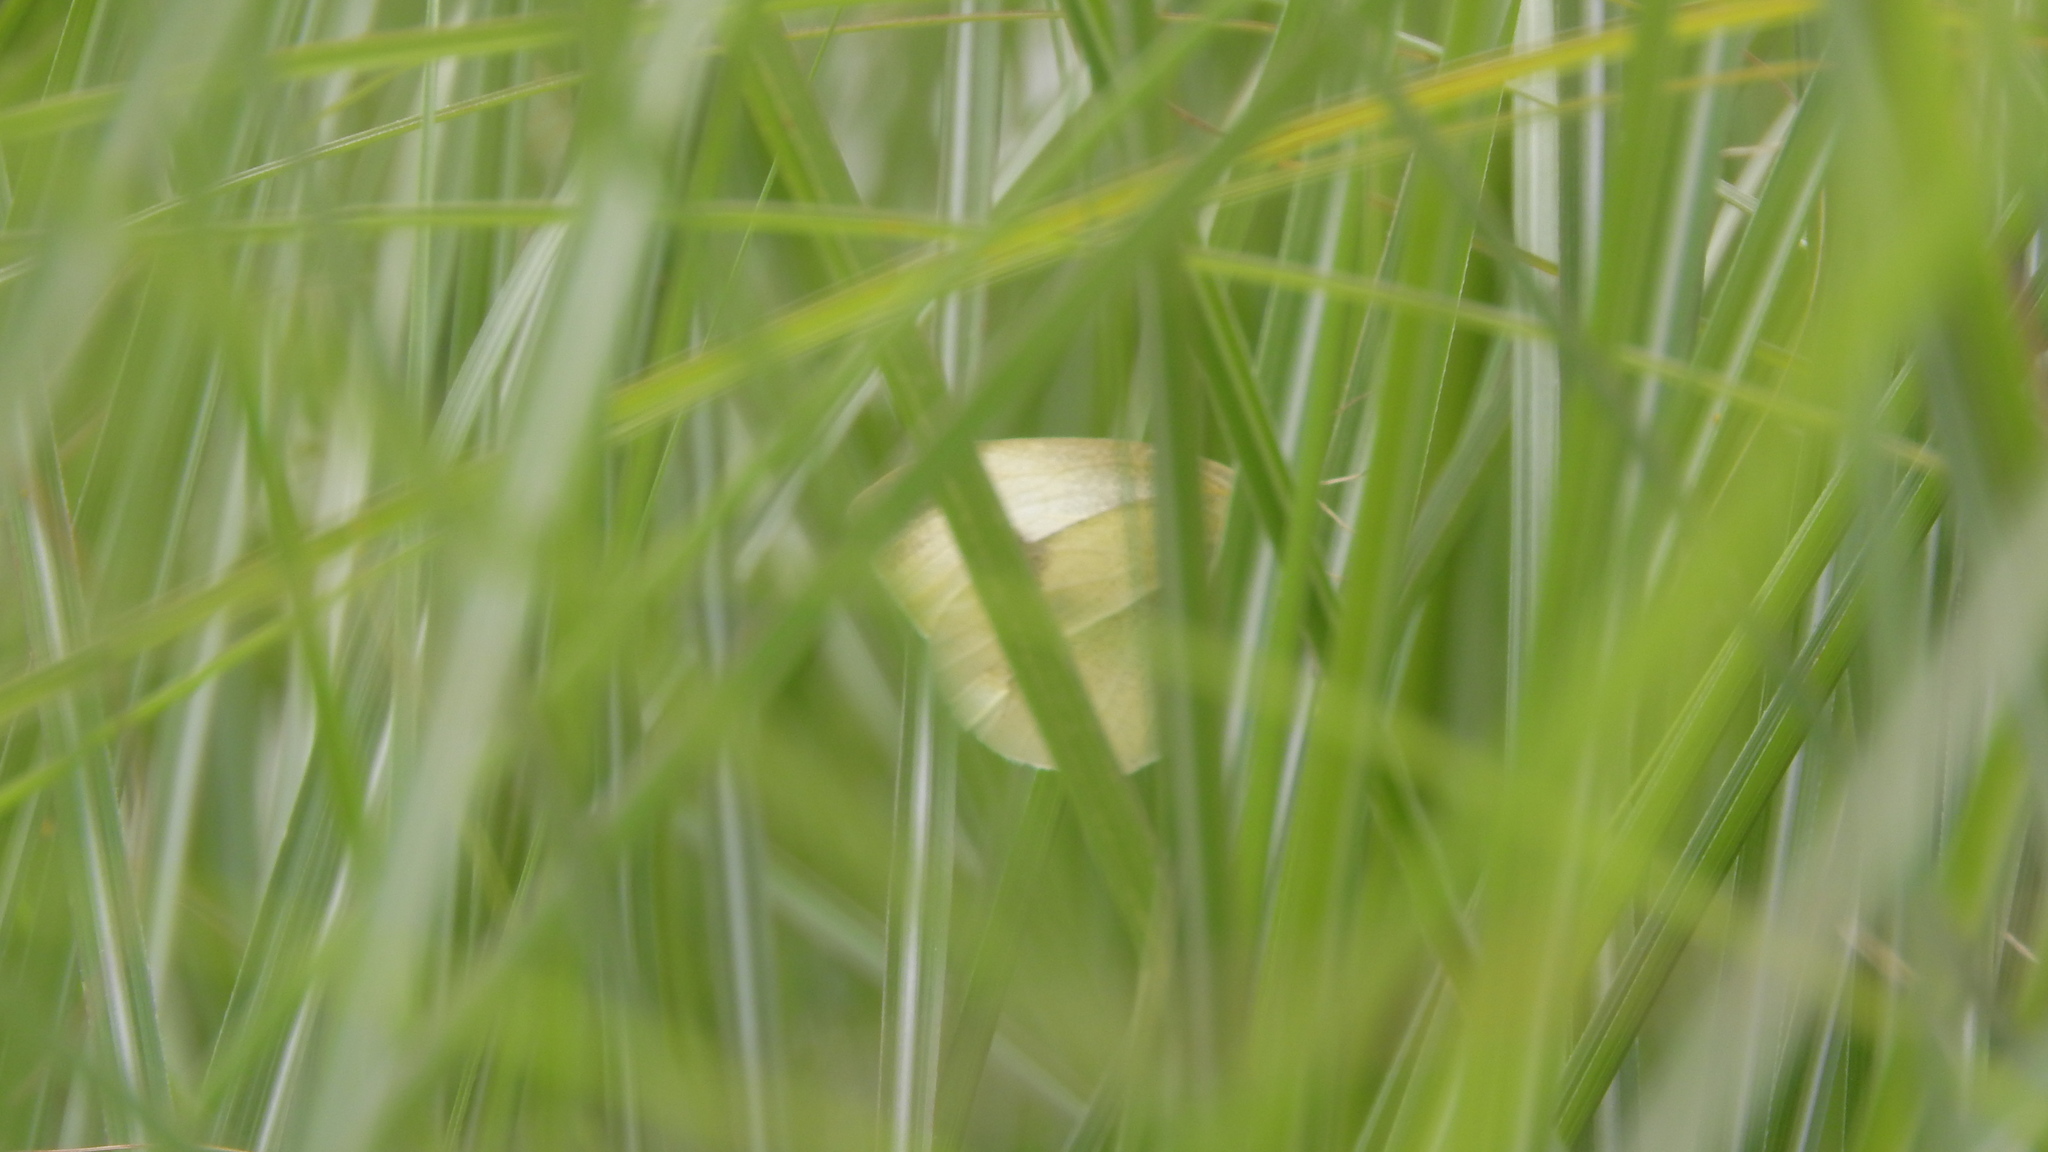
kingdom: Animalia
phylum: Arthropoda
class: Insecta
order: Lepidoptera
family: Pieridae
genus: Pieris
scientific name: Pieris rapae
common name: Small white
